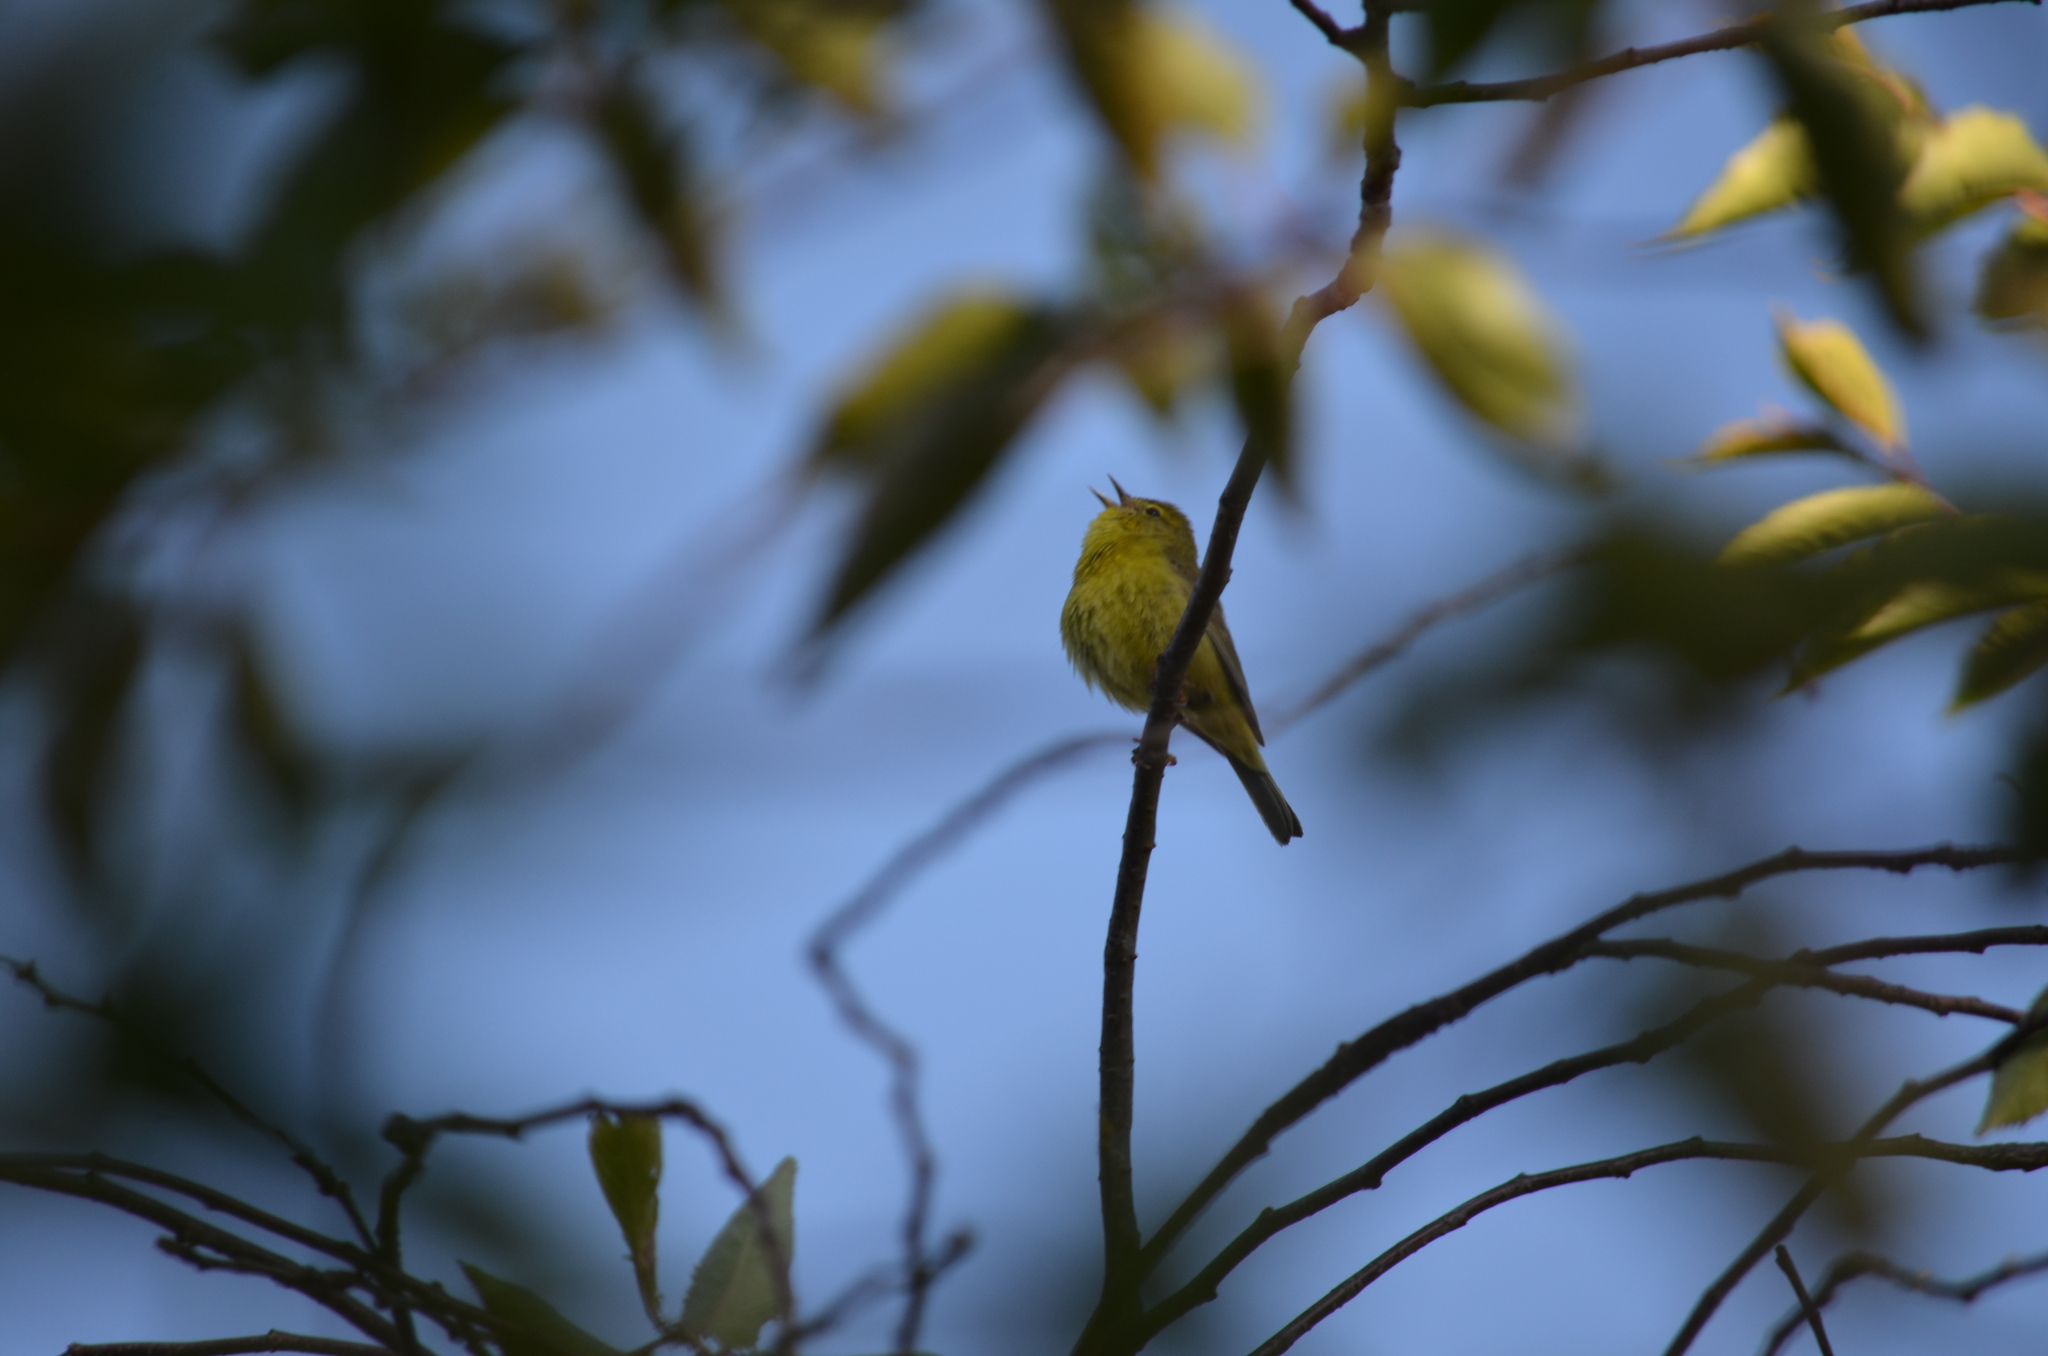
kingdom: Animalia
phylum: Chordata
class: Aves
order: Passeriformes
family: Parulidae
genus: Leiothlypis
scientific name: Leiothlypis celata
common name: Orange-crowned warbler
